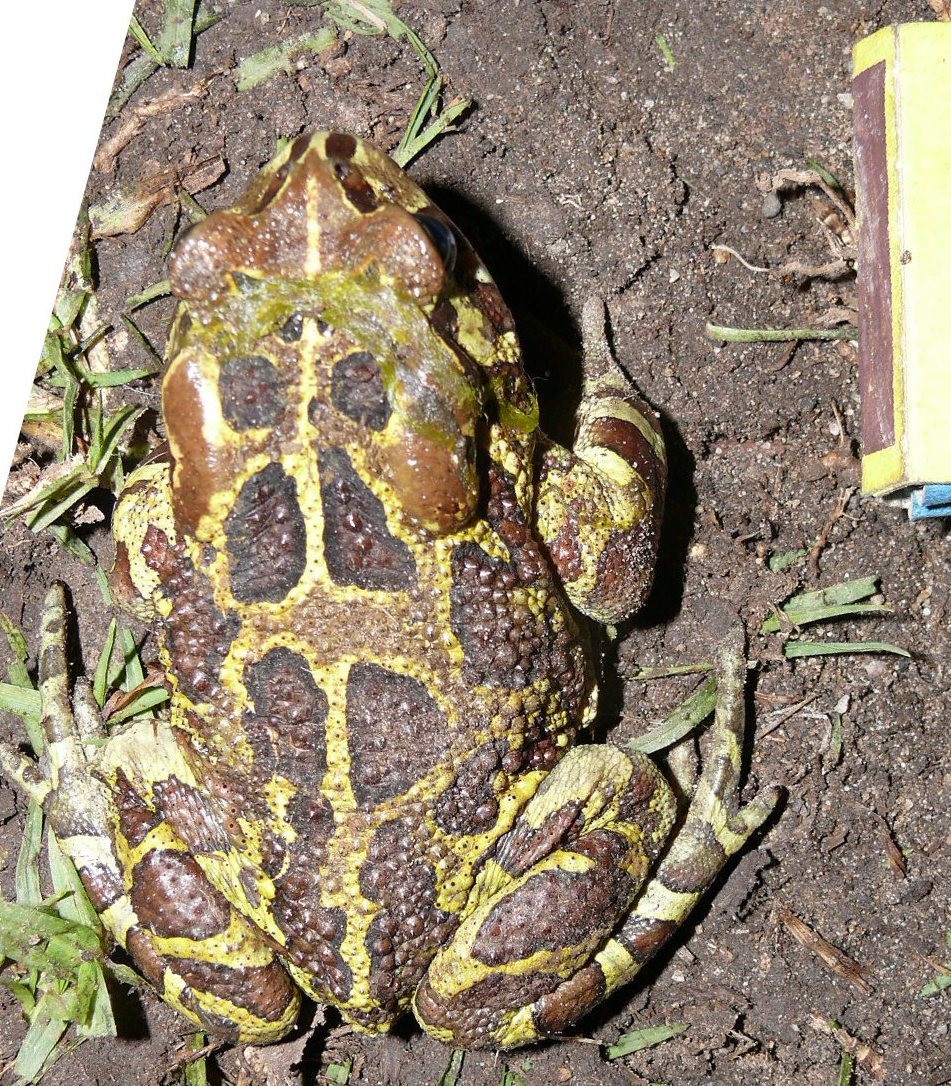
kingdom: Animalia
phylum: Chordata
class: Amphibia
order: Anura
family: Bufonidae
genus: Sclerophrys
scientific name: Sclerophrys pantherina
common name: Panther toad
